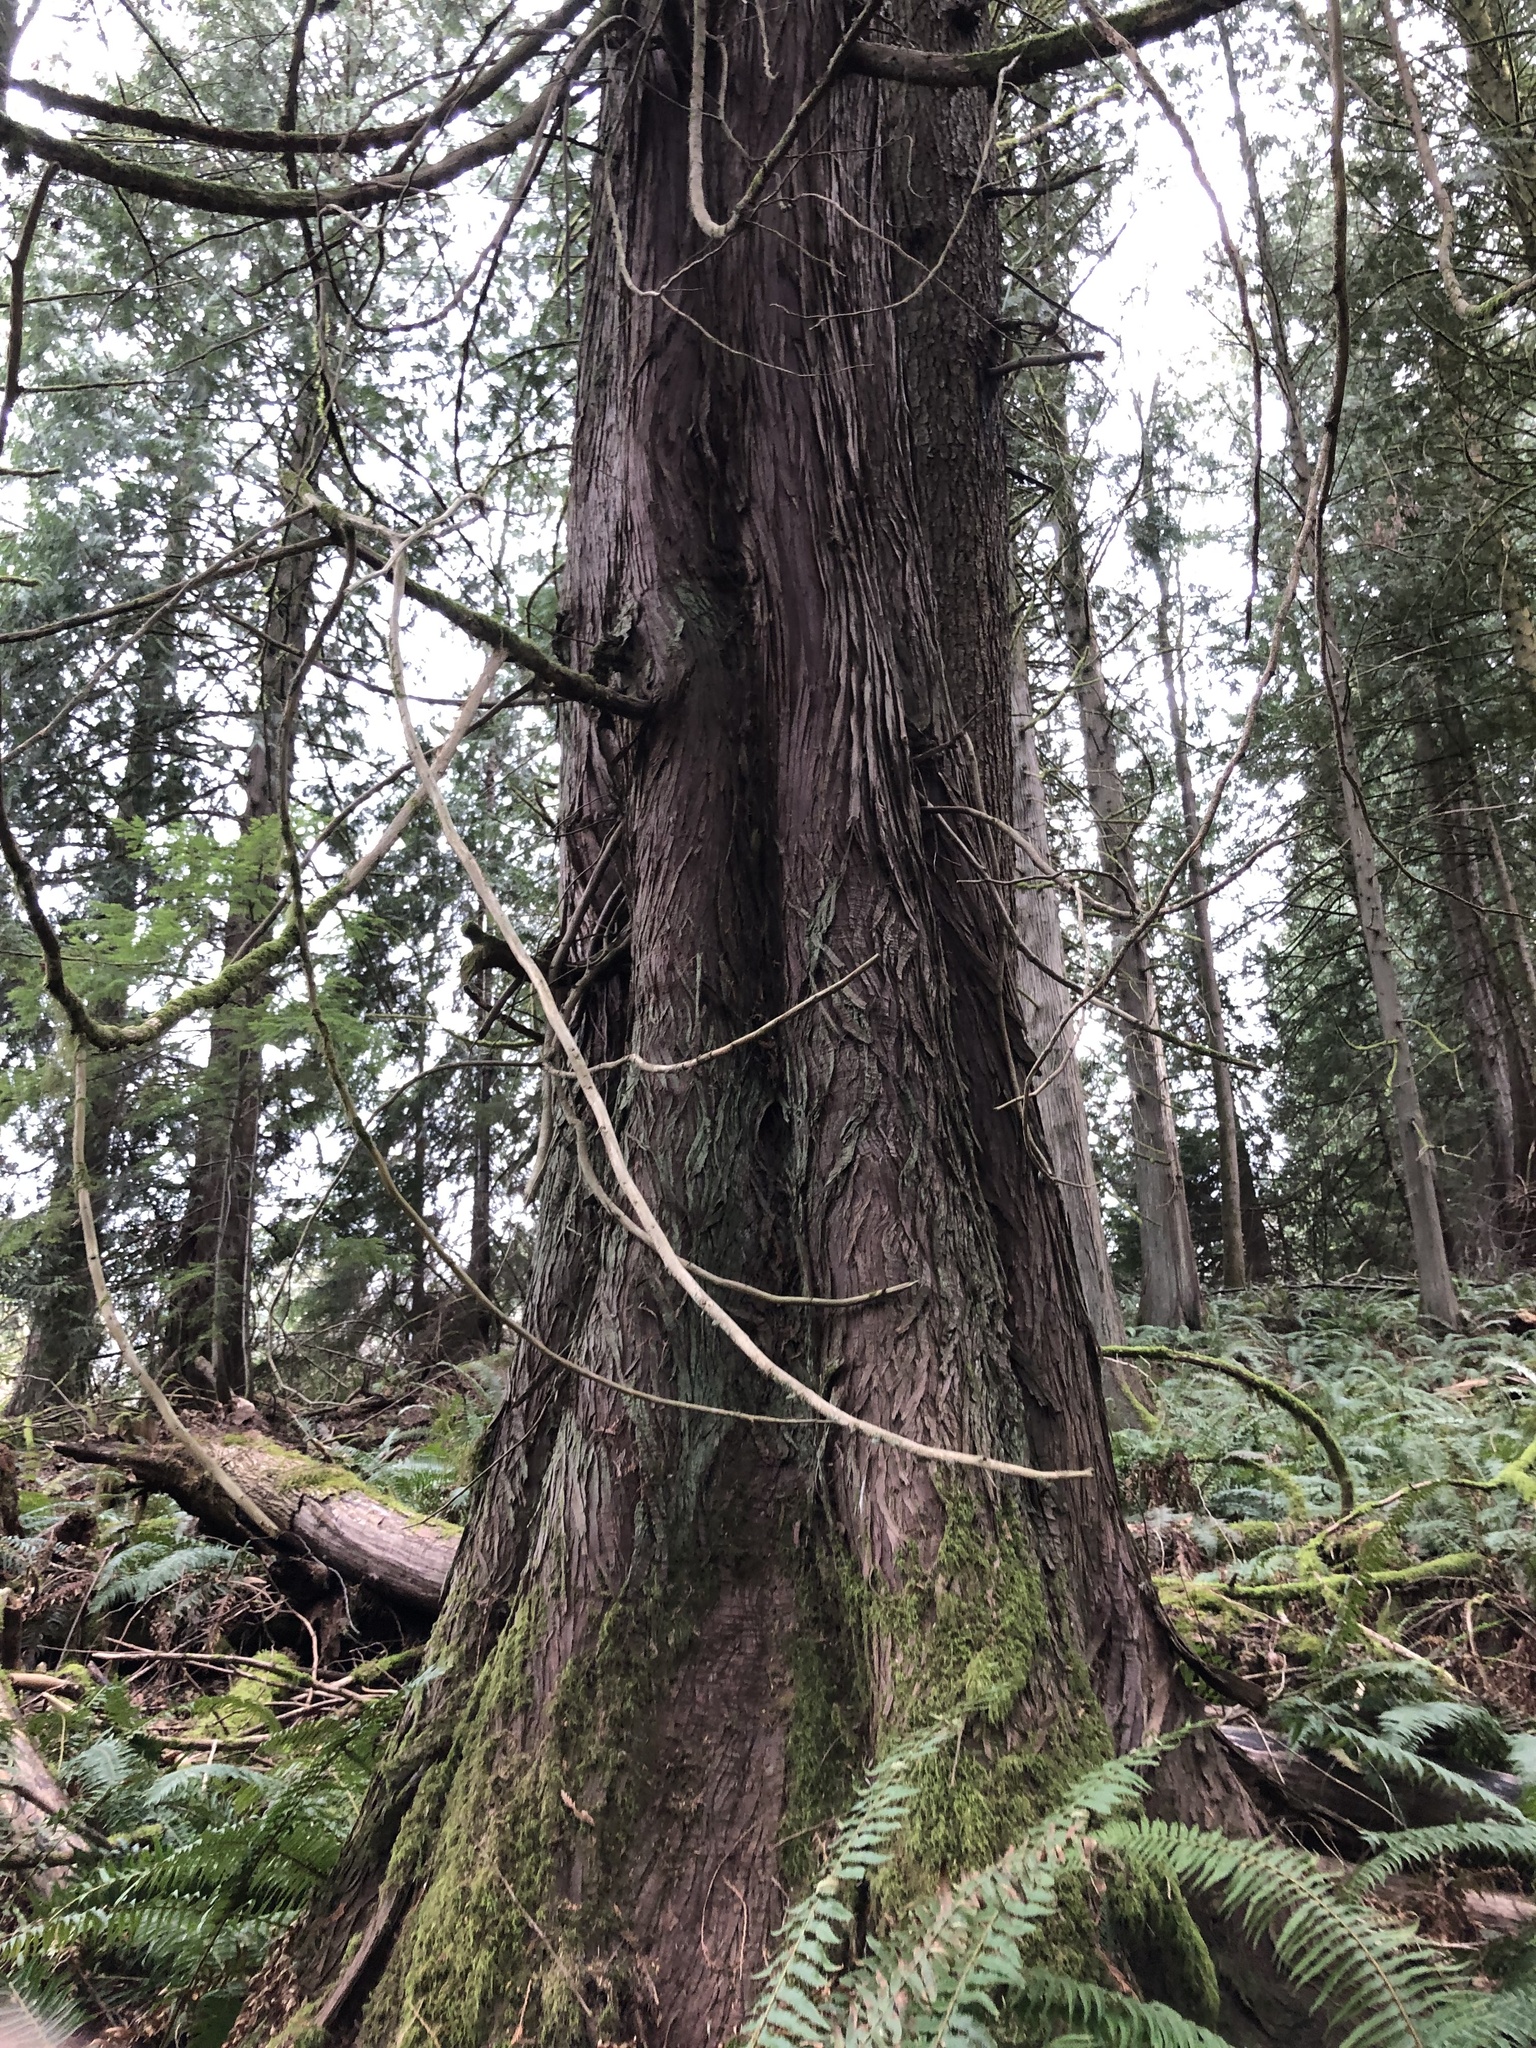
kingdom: Plantae
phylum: Tracheophyta
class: Pinopsida
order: Pinales
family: Cupressaceae
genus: Thuja
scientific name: Thuja plicata
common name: Western red-cedar
